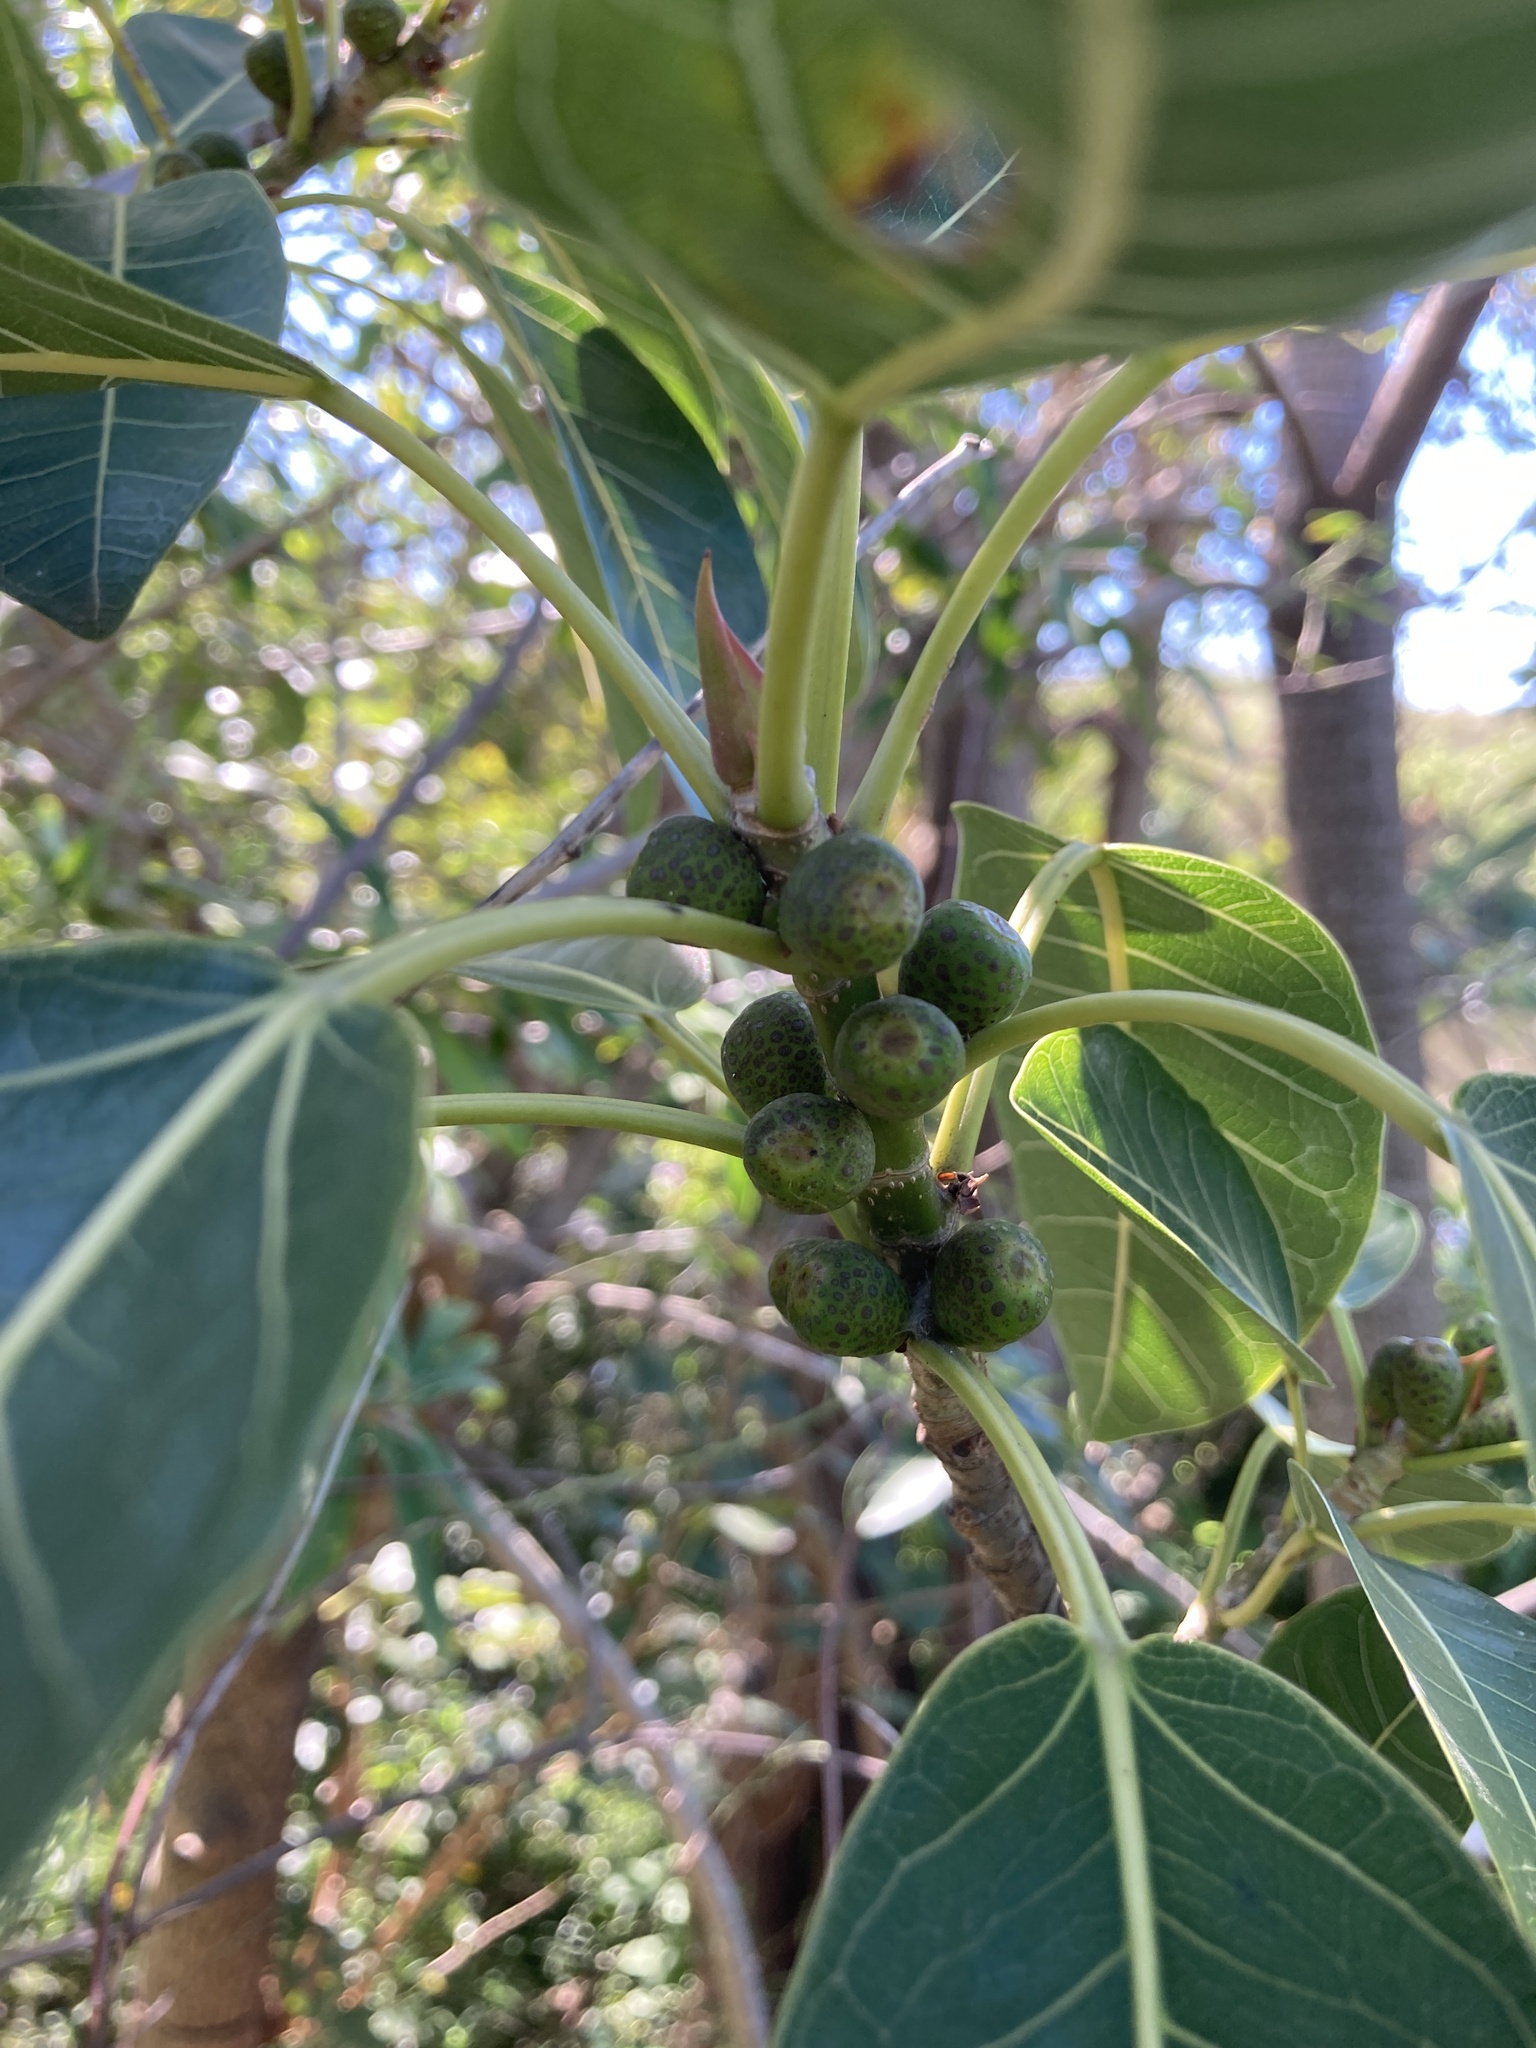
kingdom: Plantae
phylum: Tracheophyta
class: Magnoliopsida
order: Rosales
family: Moraceae
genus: Ficus
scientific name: Ficus luschnathiana
